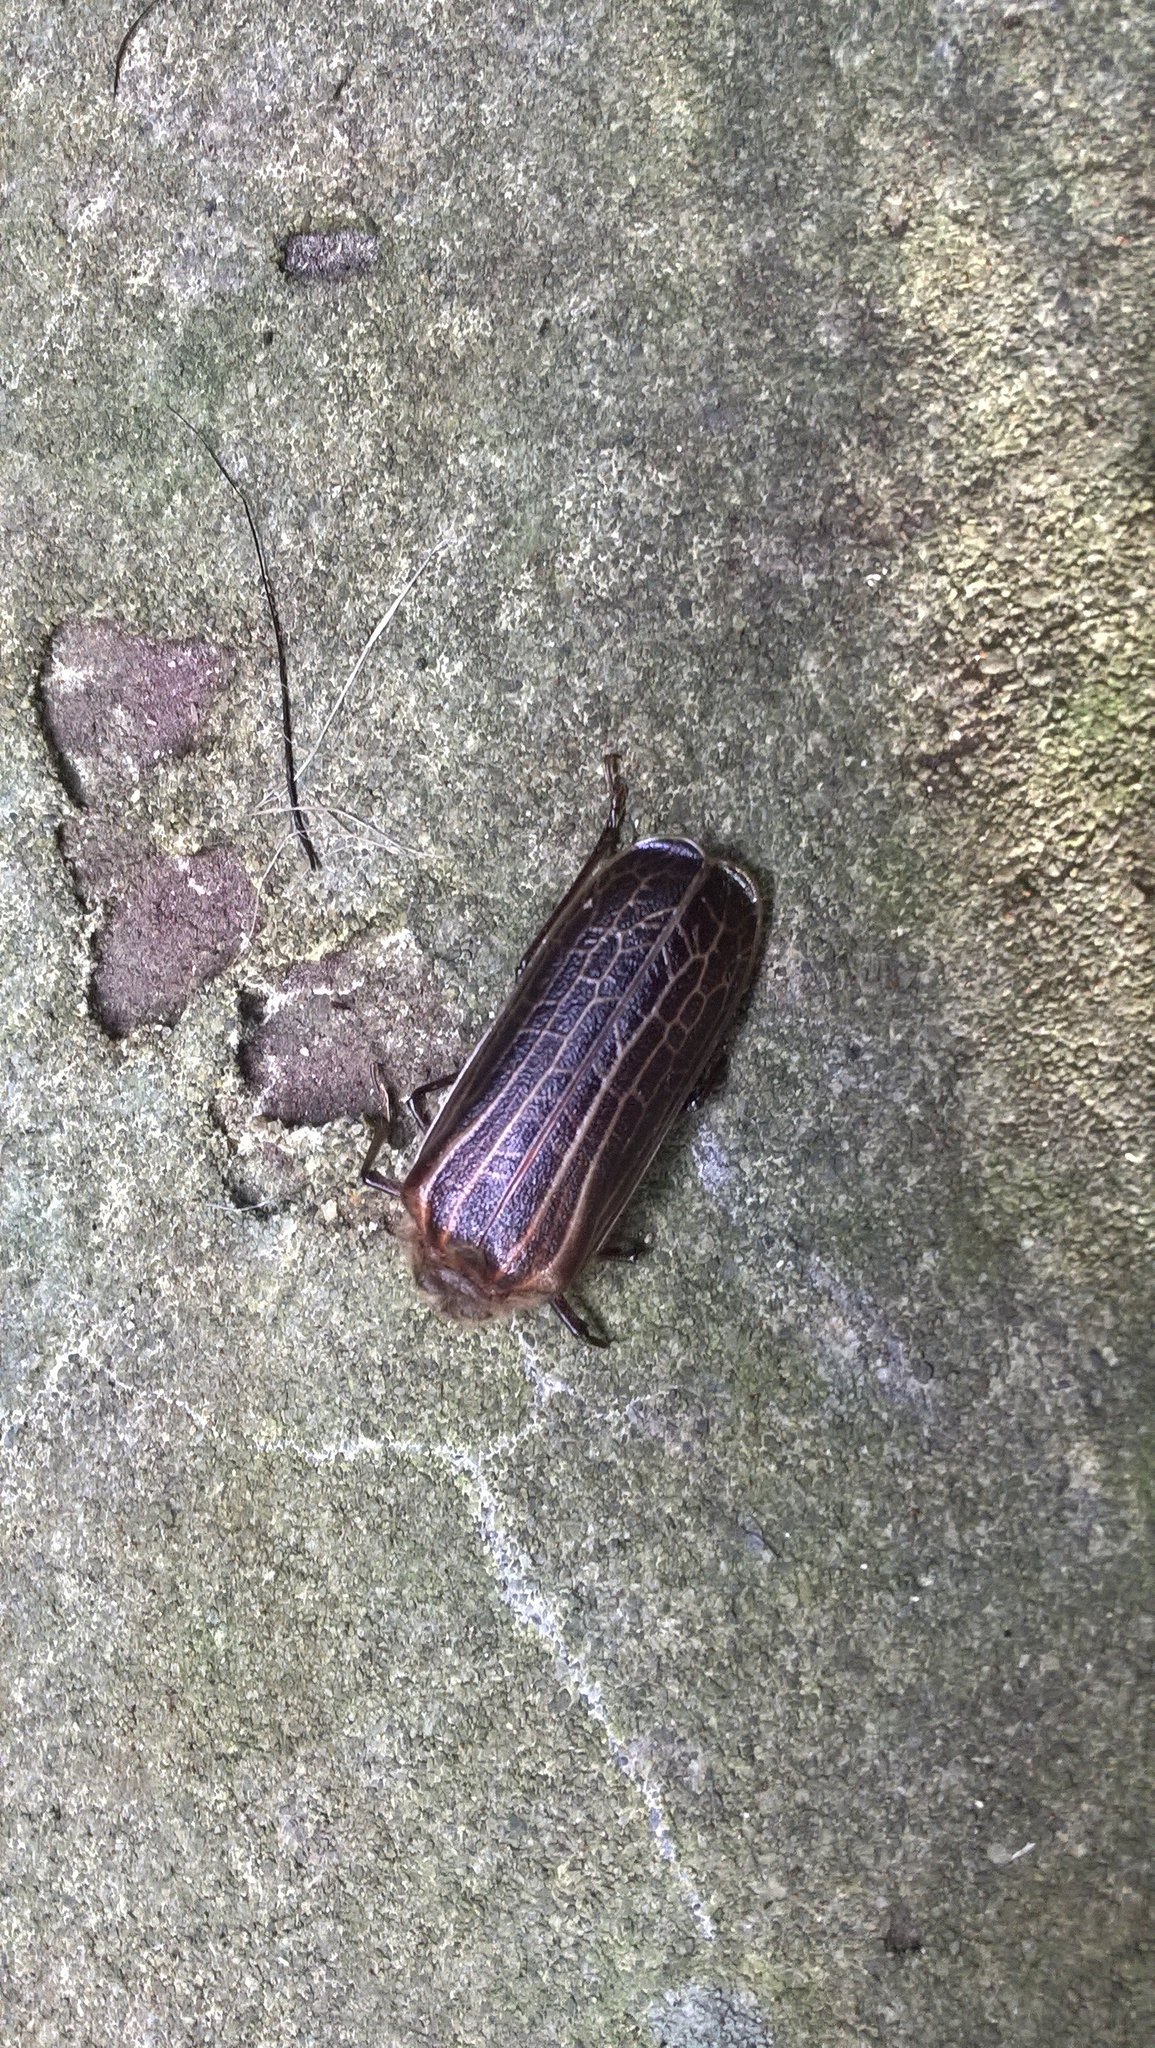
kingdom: Animalia
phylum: Arthropoda
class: Insecta
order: Coleoptera
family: Cerambycidae
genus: Prionoplus
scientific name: Prionoplus reticularis
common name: Huhu beetle
